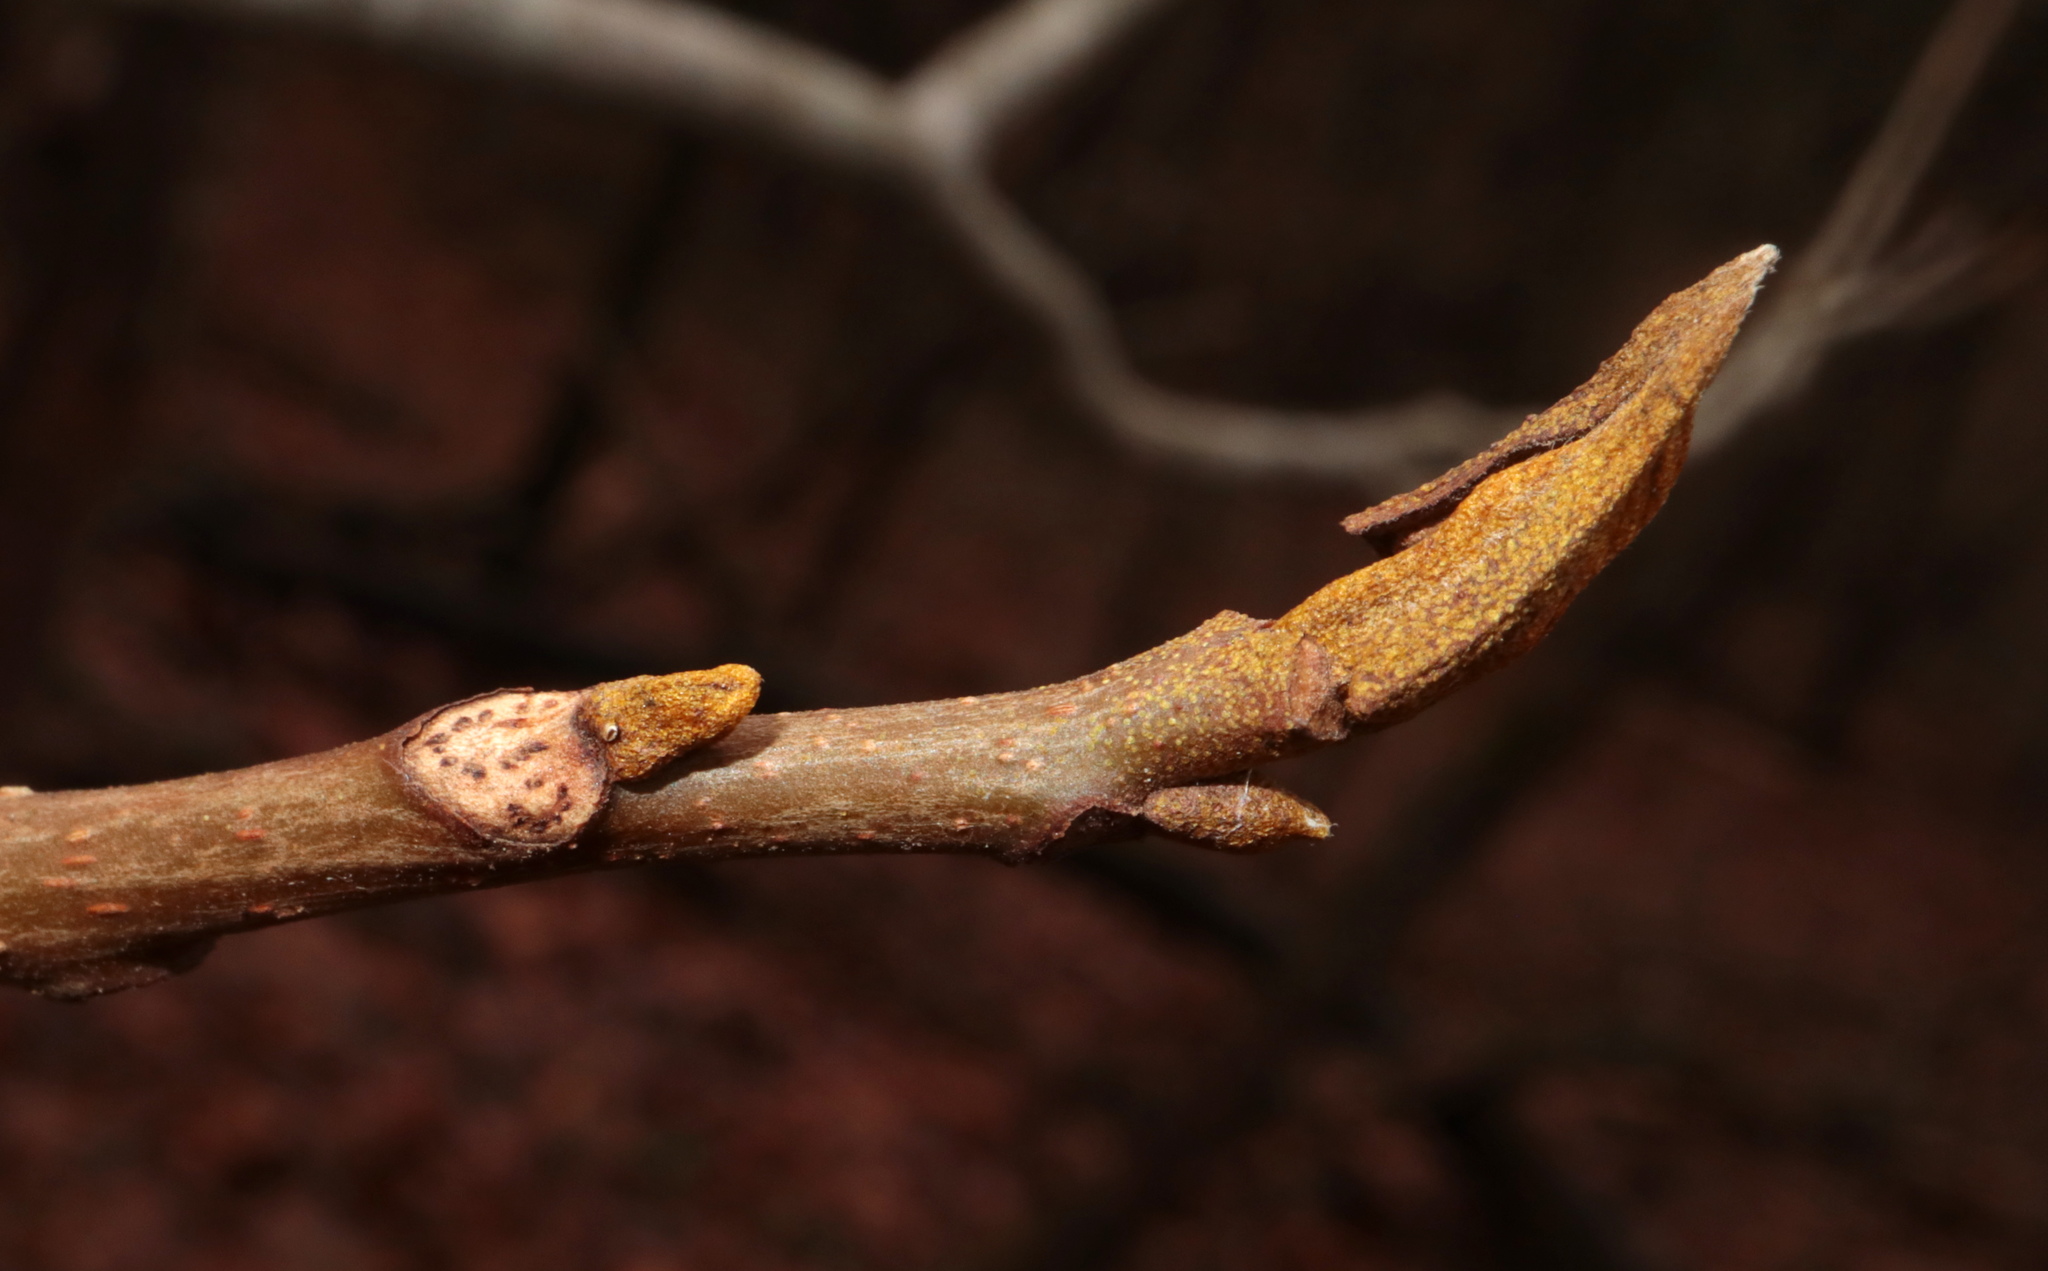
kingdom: Plantae
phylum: Tracheophyta
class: Magnoliopsida
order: Fagales
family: Juglandaceae
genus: Carya
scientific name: Carya cordiformis
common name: Bitternut hickory
